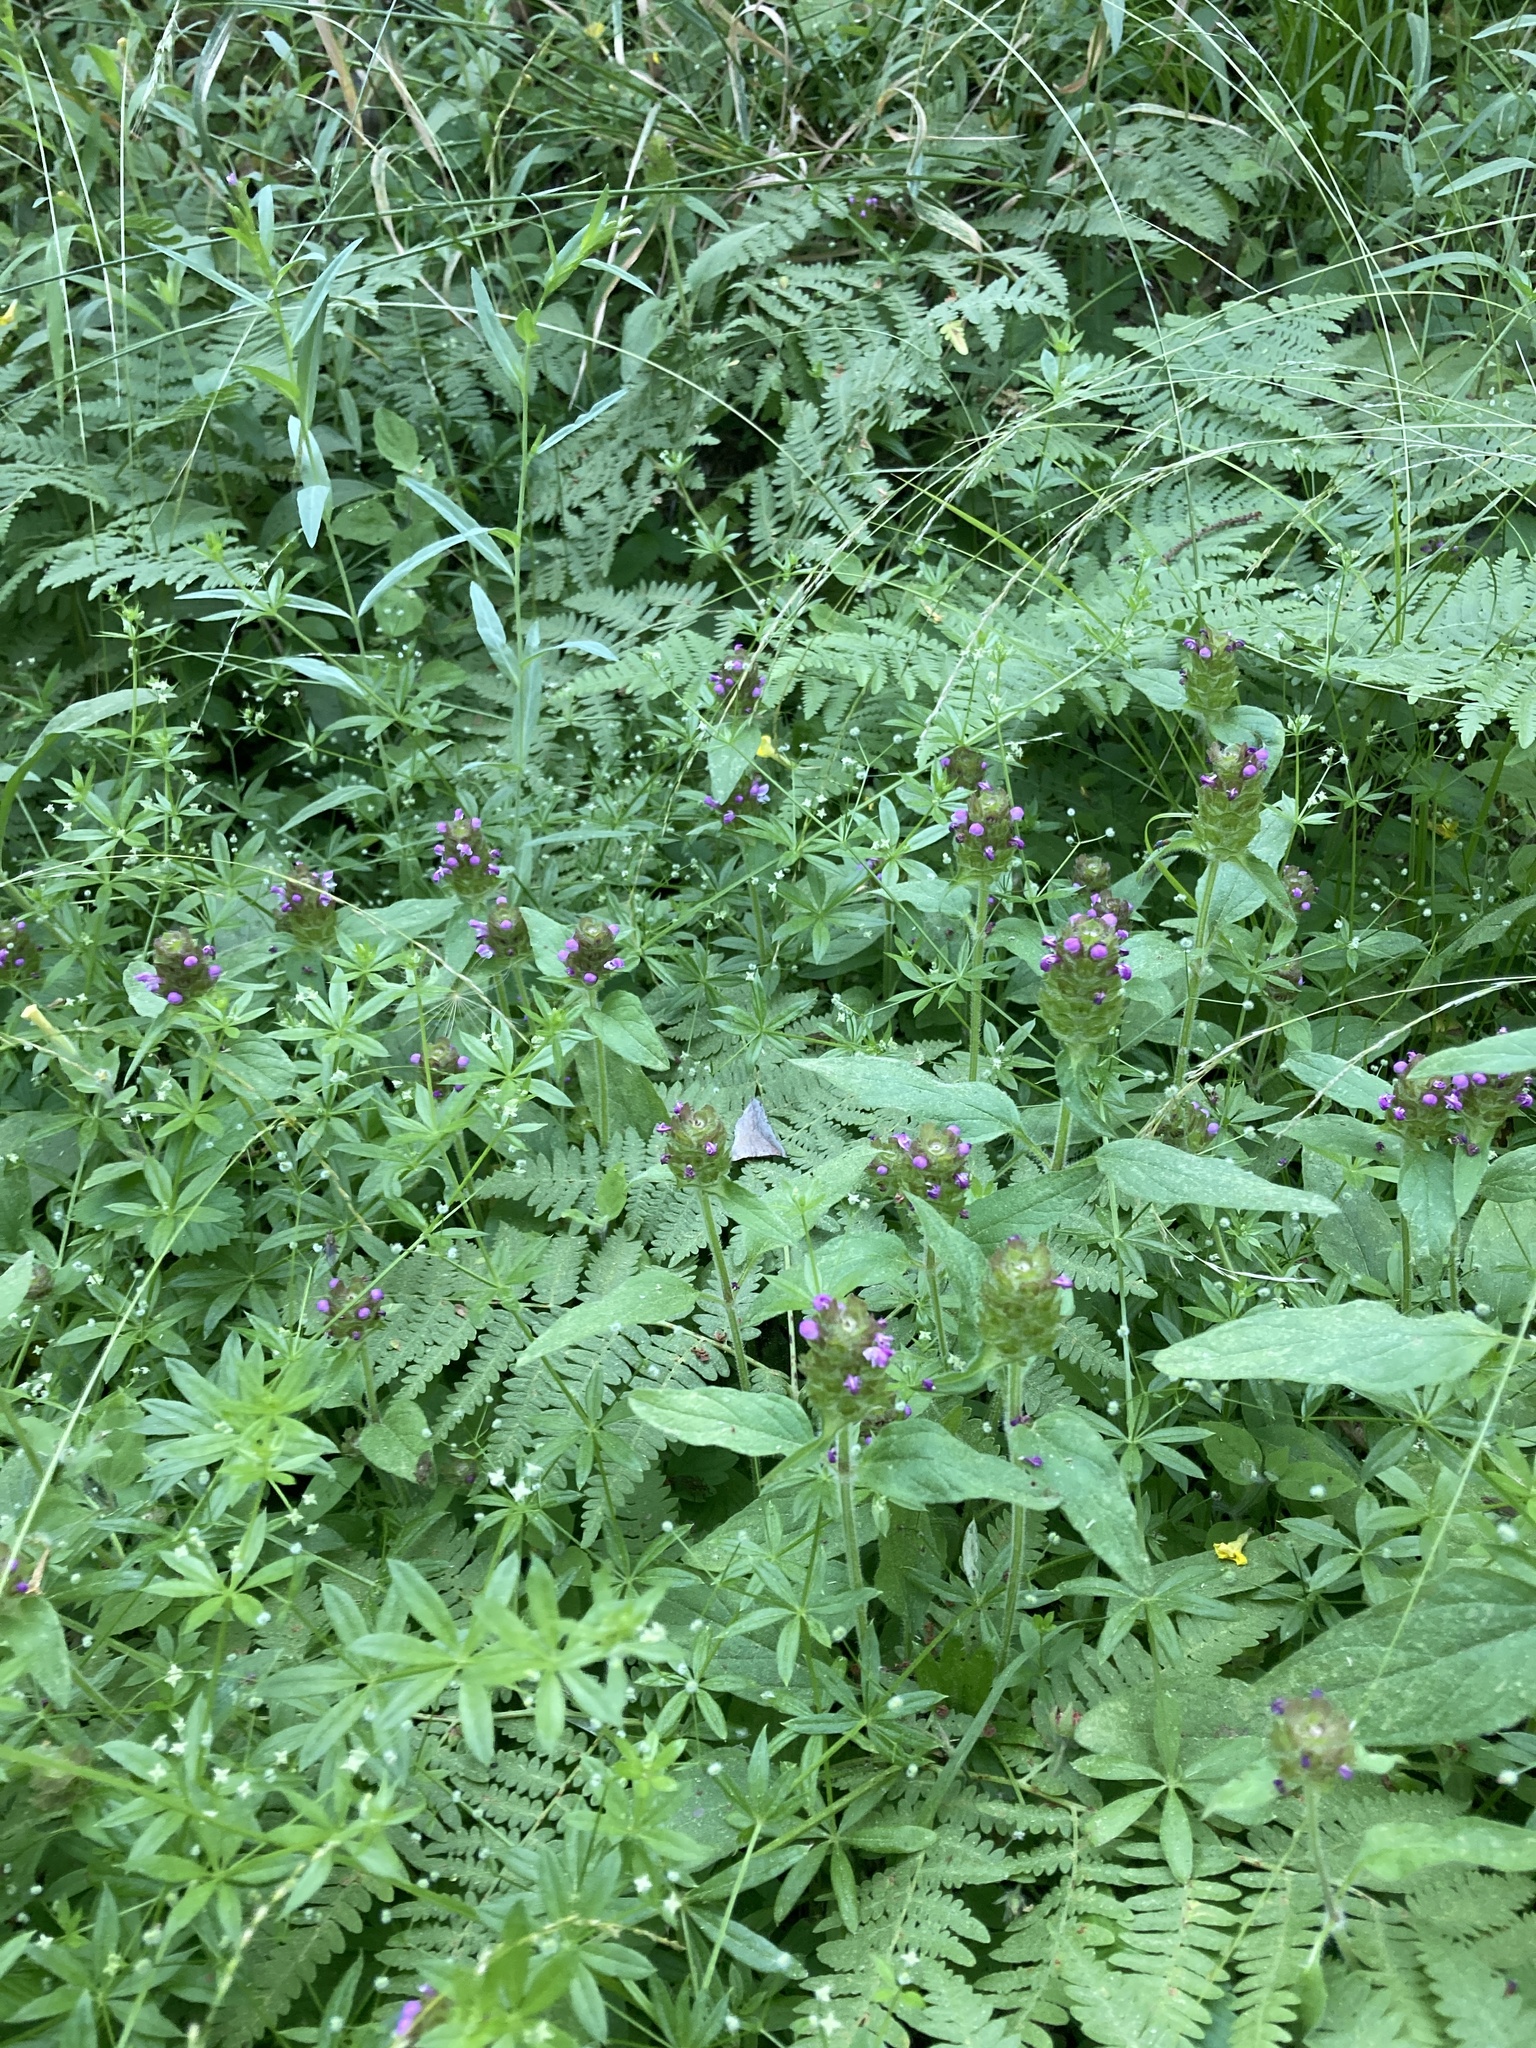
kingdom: Plantae
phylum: Tracheophyta
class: Magnoliopsida
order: Lamiales
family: Lamiaceae
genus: Prunella
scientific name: Prunella vulgaris
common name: Heal-all
